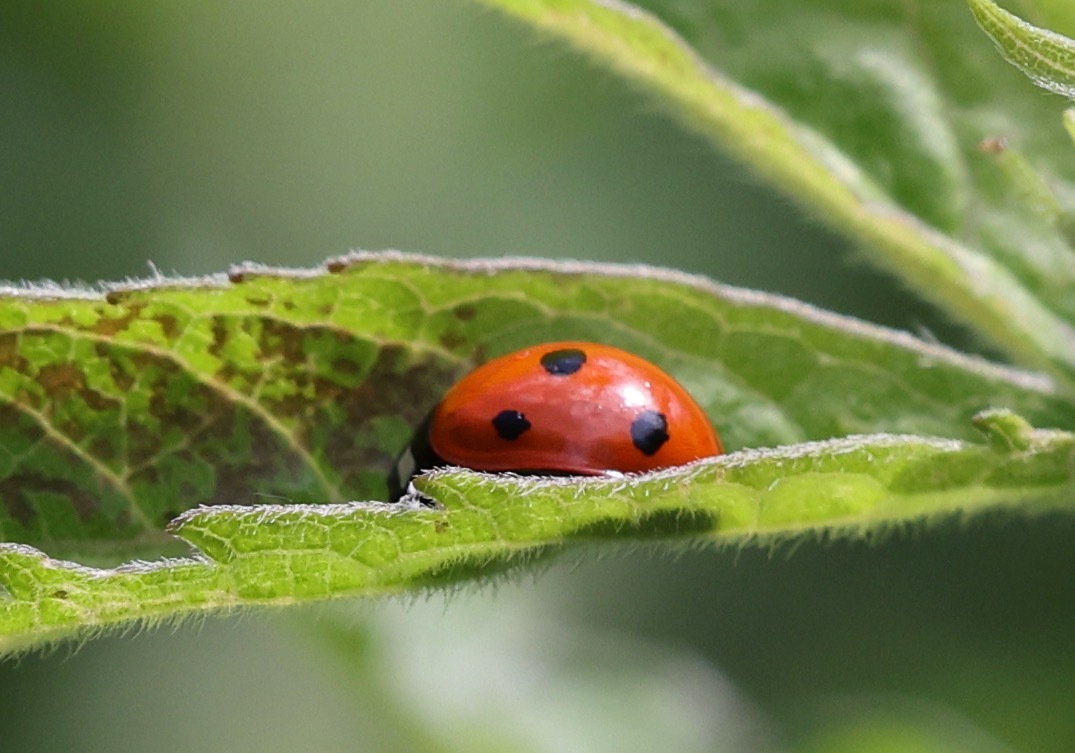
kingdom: Animalia
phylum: Arthropoda
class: Insecta
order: Coleoptera
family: Coccinellidae
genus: Coccinella
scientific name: Coccinella septempunctata
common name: Sevenspotted lady beetle
